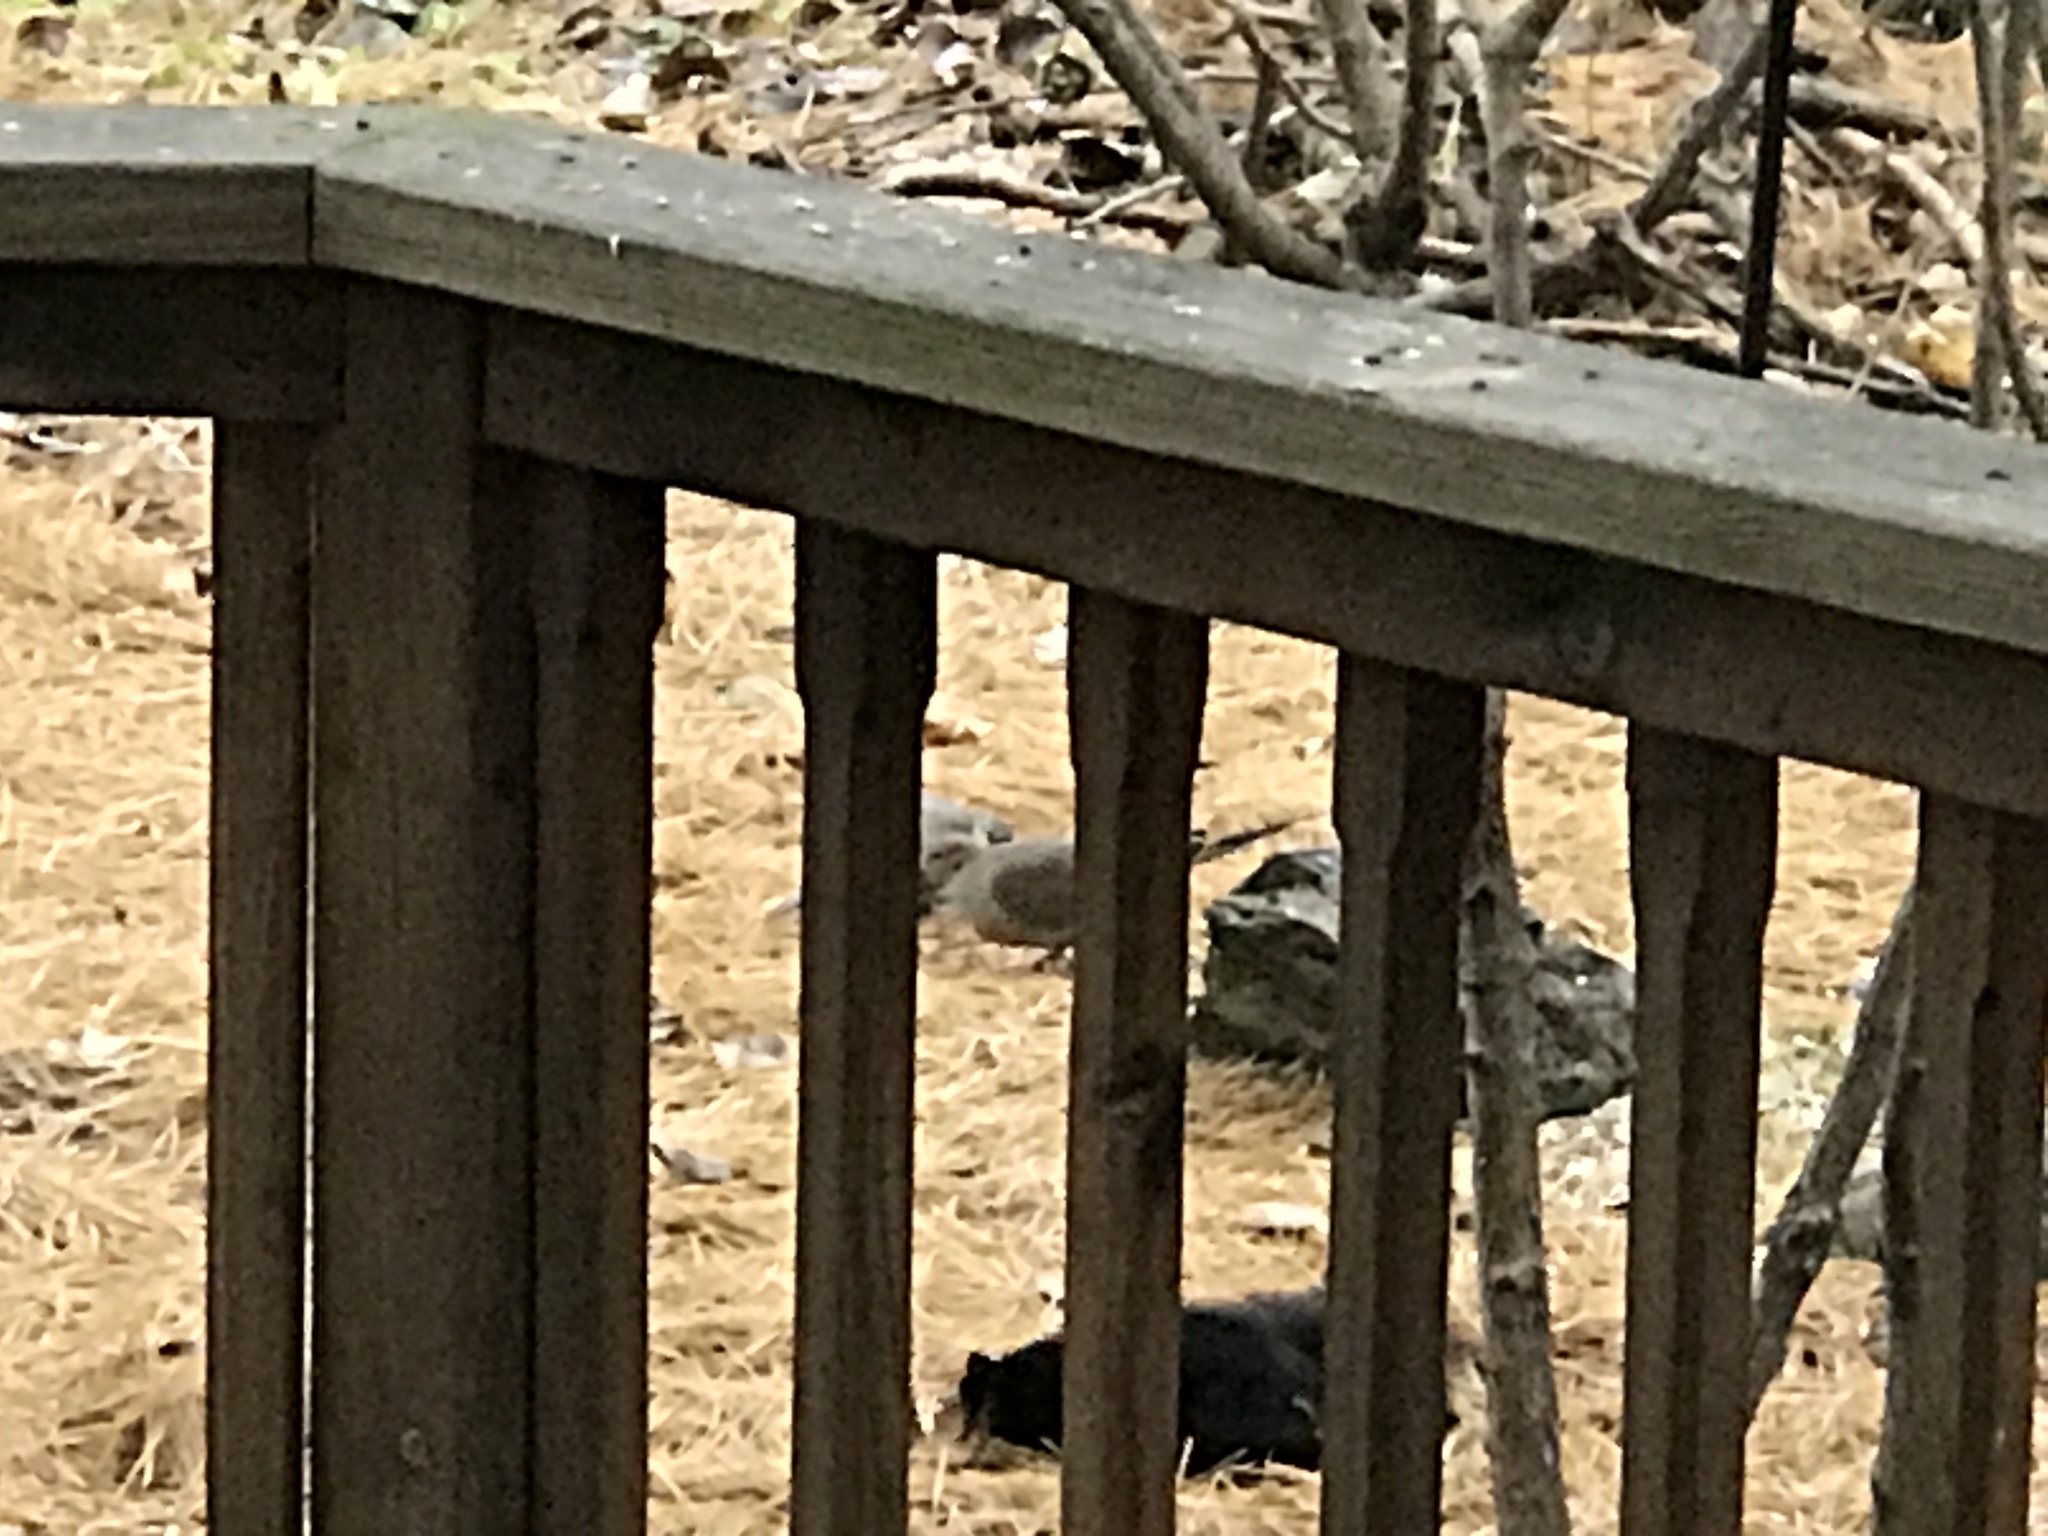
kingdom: Animalia
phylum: Chordata
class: Aves
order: Columbiformes
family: Columbidae
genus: Zenaida
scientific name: Zenaida macroura
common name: Mourning dove
